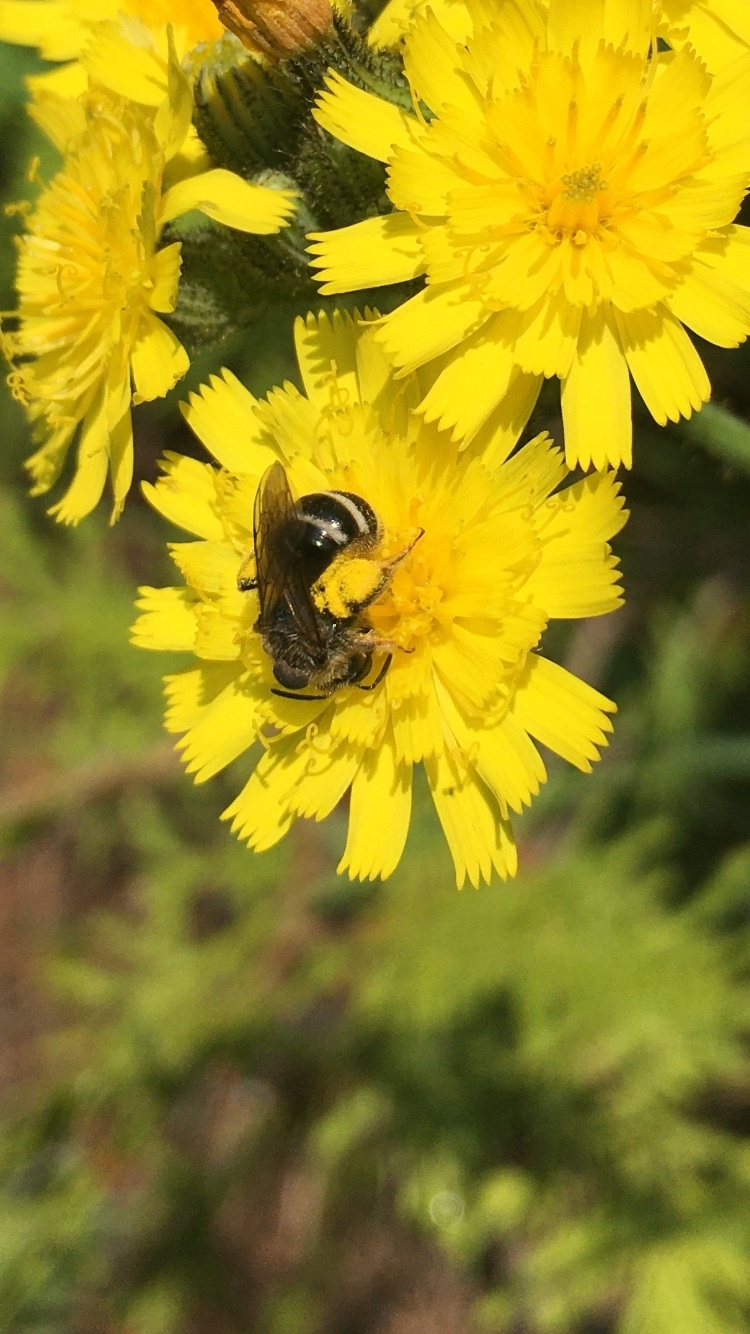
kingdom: Animalia
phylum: Arthropoda
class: Insecta
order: Hymenoptera
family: Halictidae
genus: Halictus
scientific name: Halictus ligatus
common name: Ligated furrow bee
